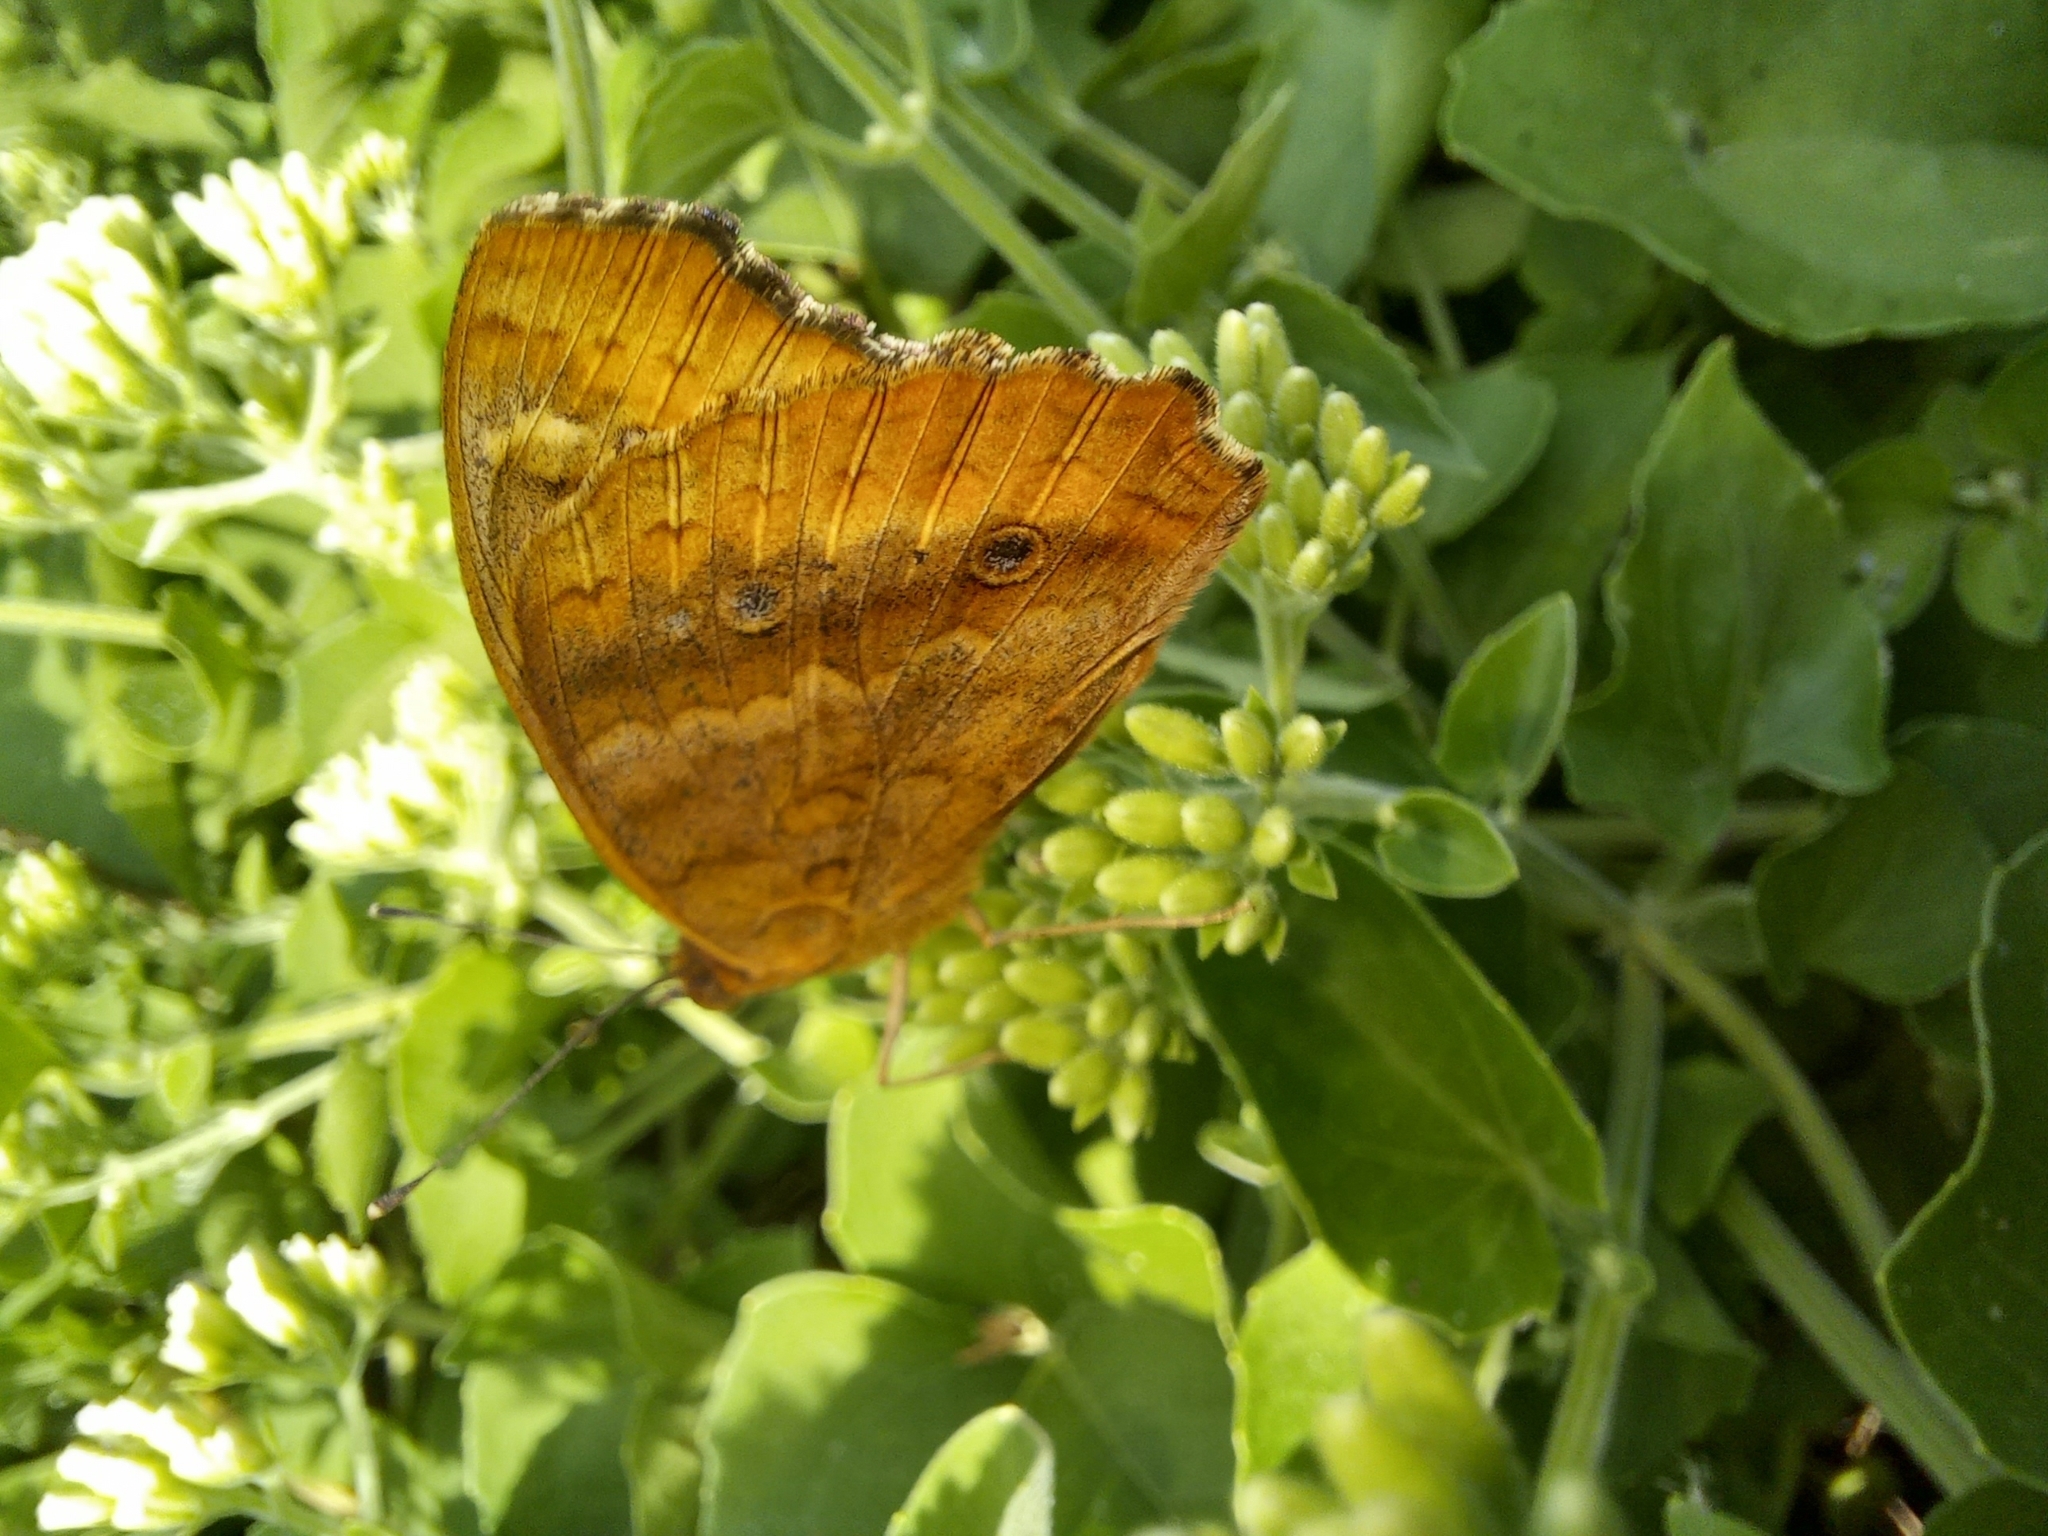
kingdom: Animalia
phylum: Arthropoda
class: Insecta
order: Lepidoptera
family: Nymphalidae
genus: Junonia
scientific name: Junonia lavinia
